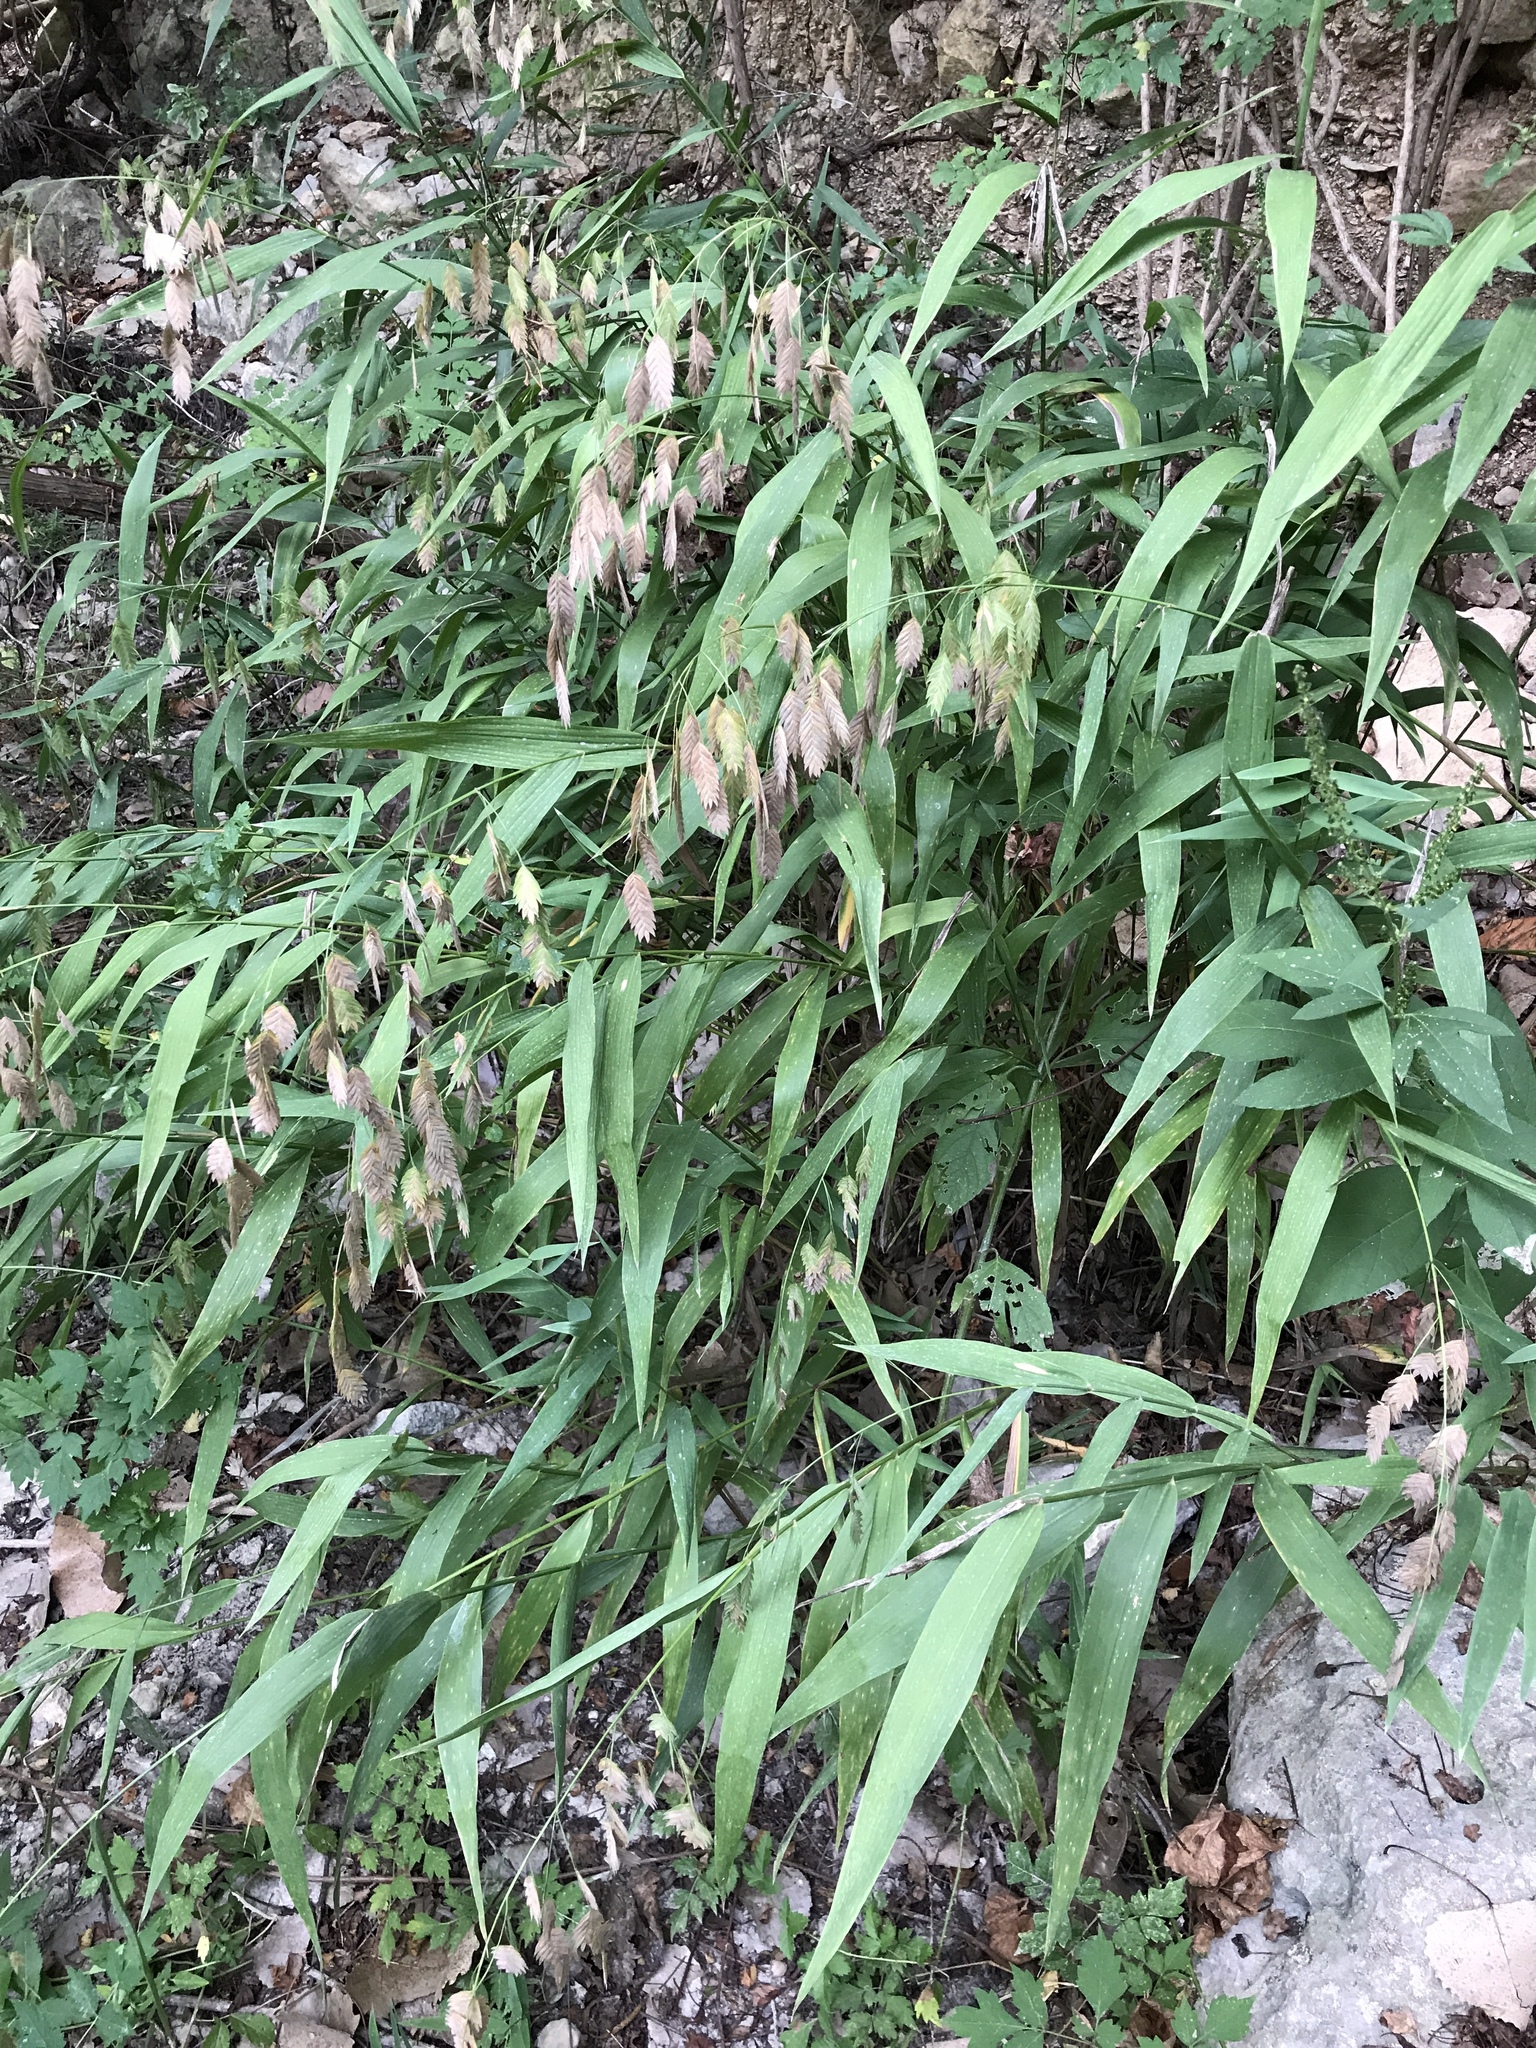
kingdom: Plantae
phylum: Tracheophyta
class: Liliopsida
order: Poales
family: Poaceae
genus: Chasmanthium
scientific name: Chasmanthium latifolium
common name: Broad-leaved chasmanthium
